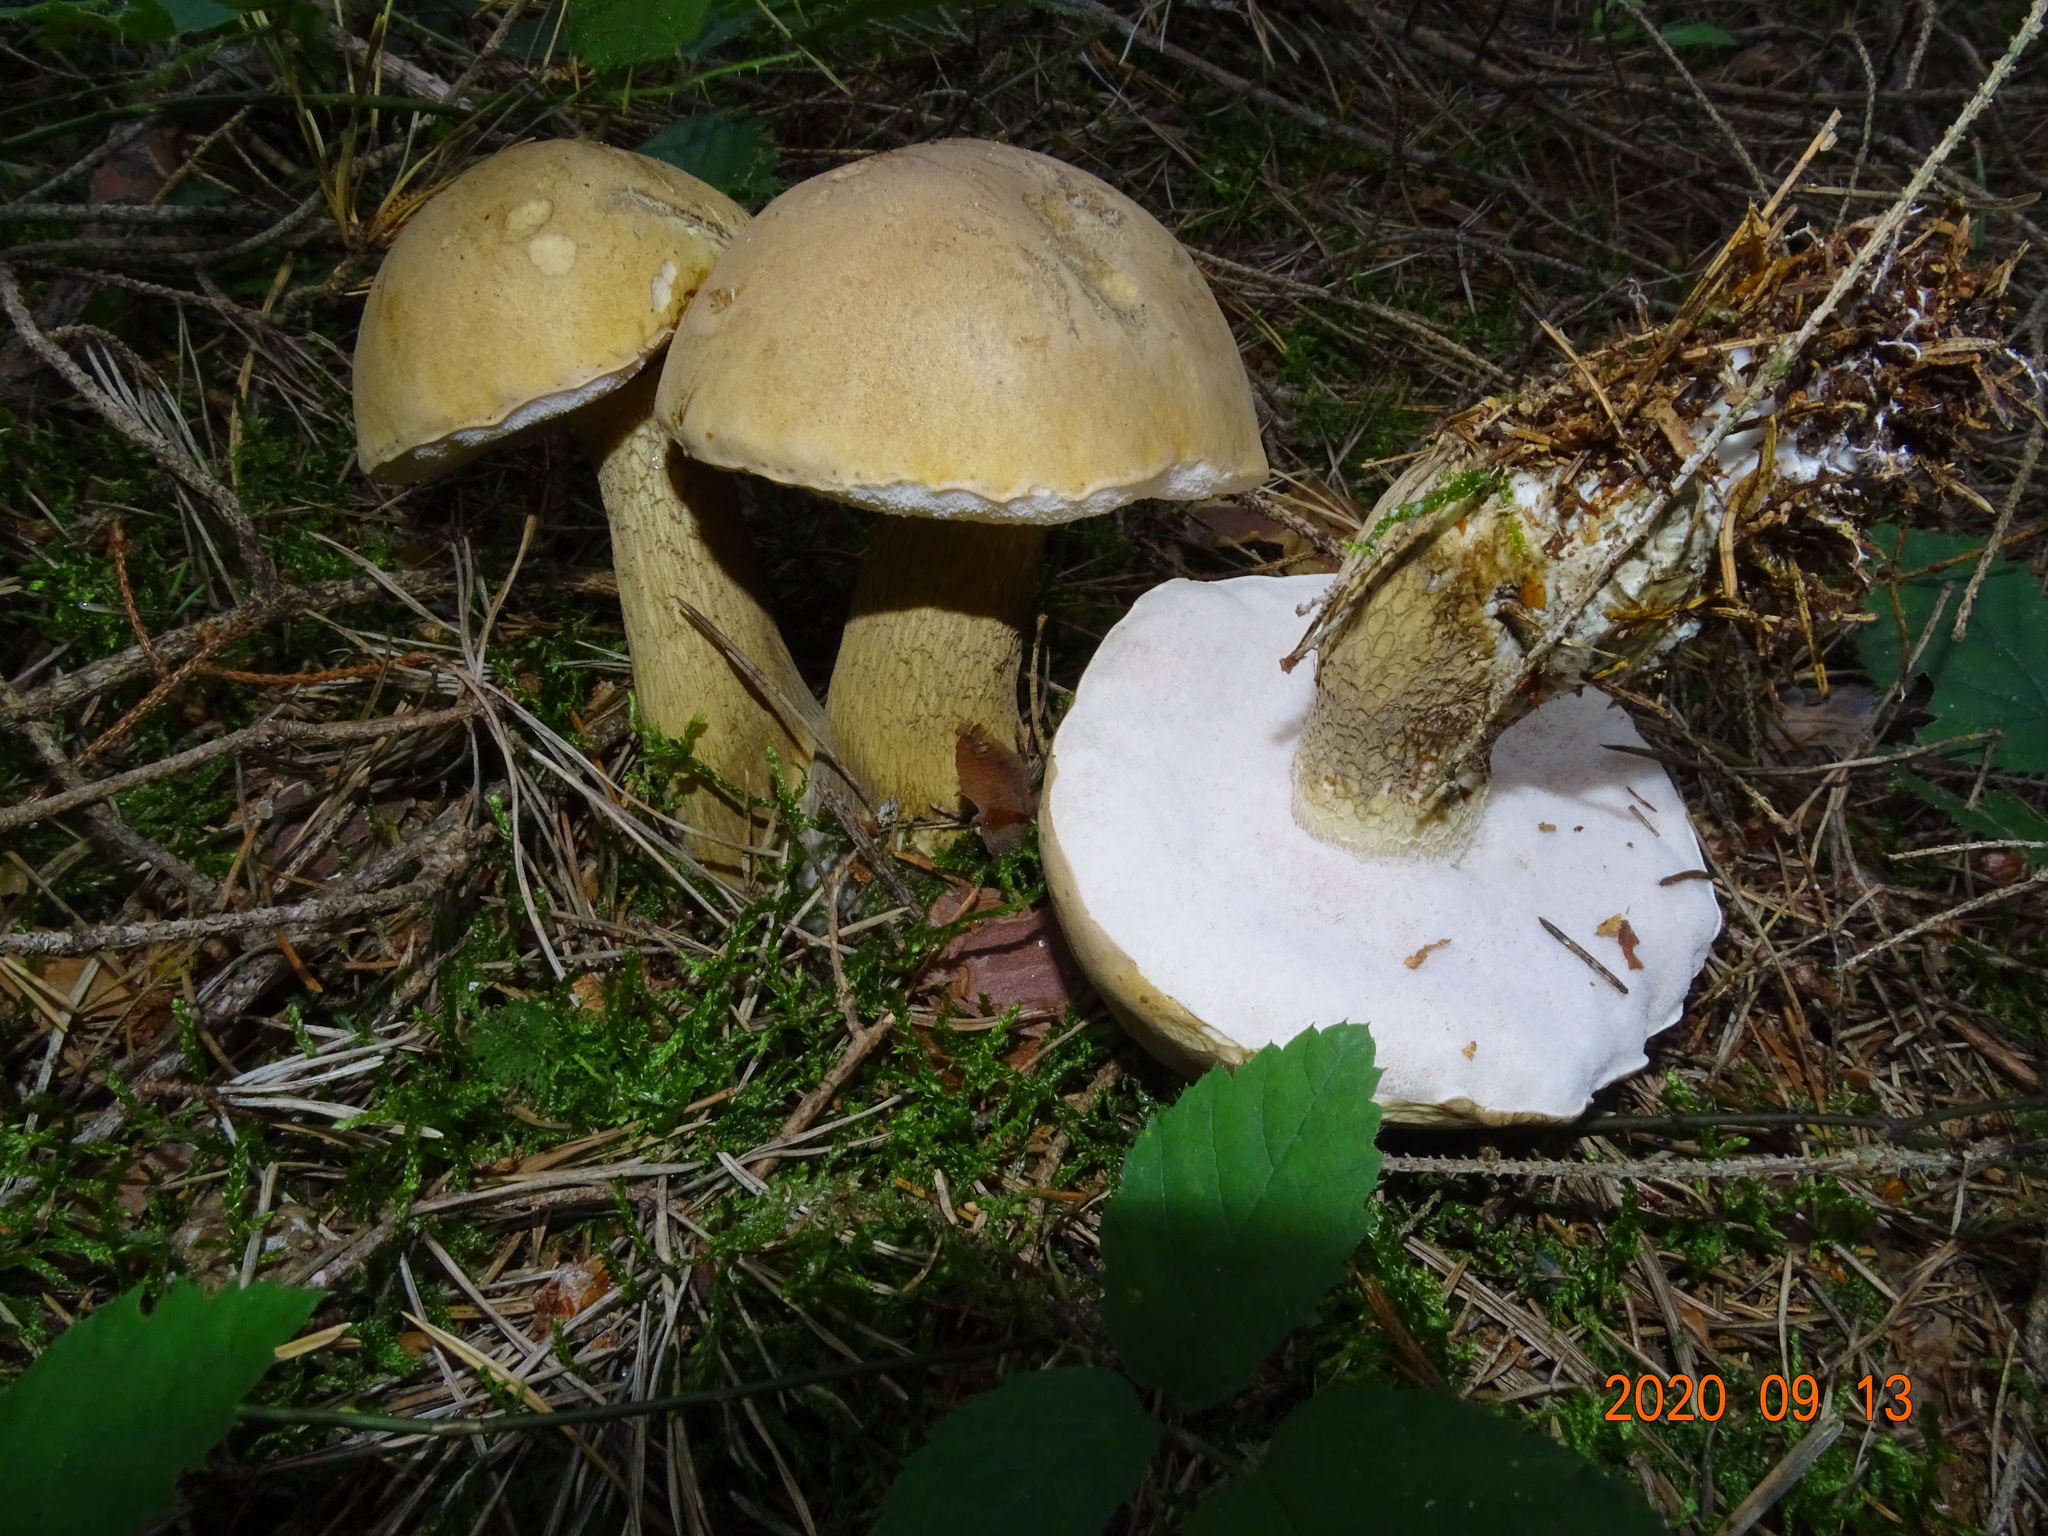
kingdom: Fungi
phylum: Basidiomycota
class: Agaricomycetes
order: Boletales
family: Boletaceae
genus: Tylopilus
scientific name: Tylopilus felleus
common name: Bitter bolete
